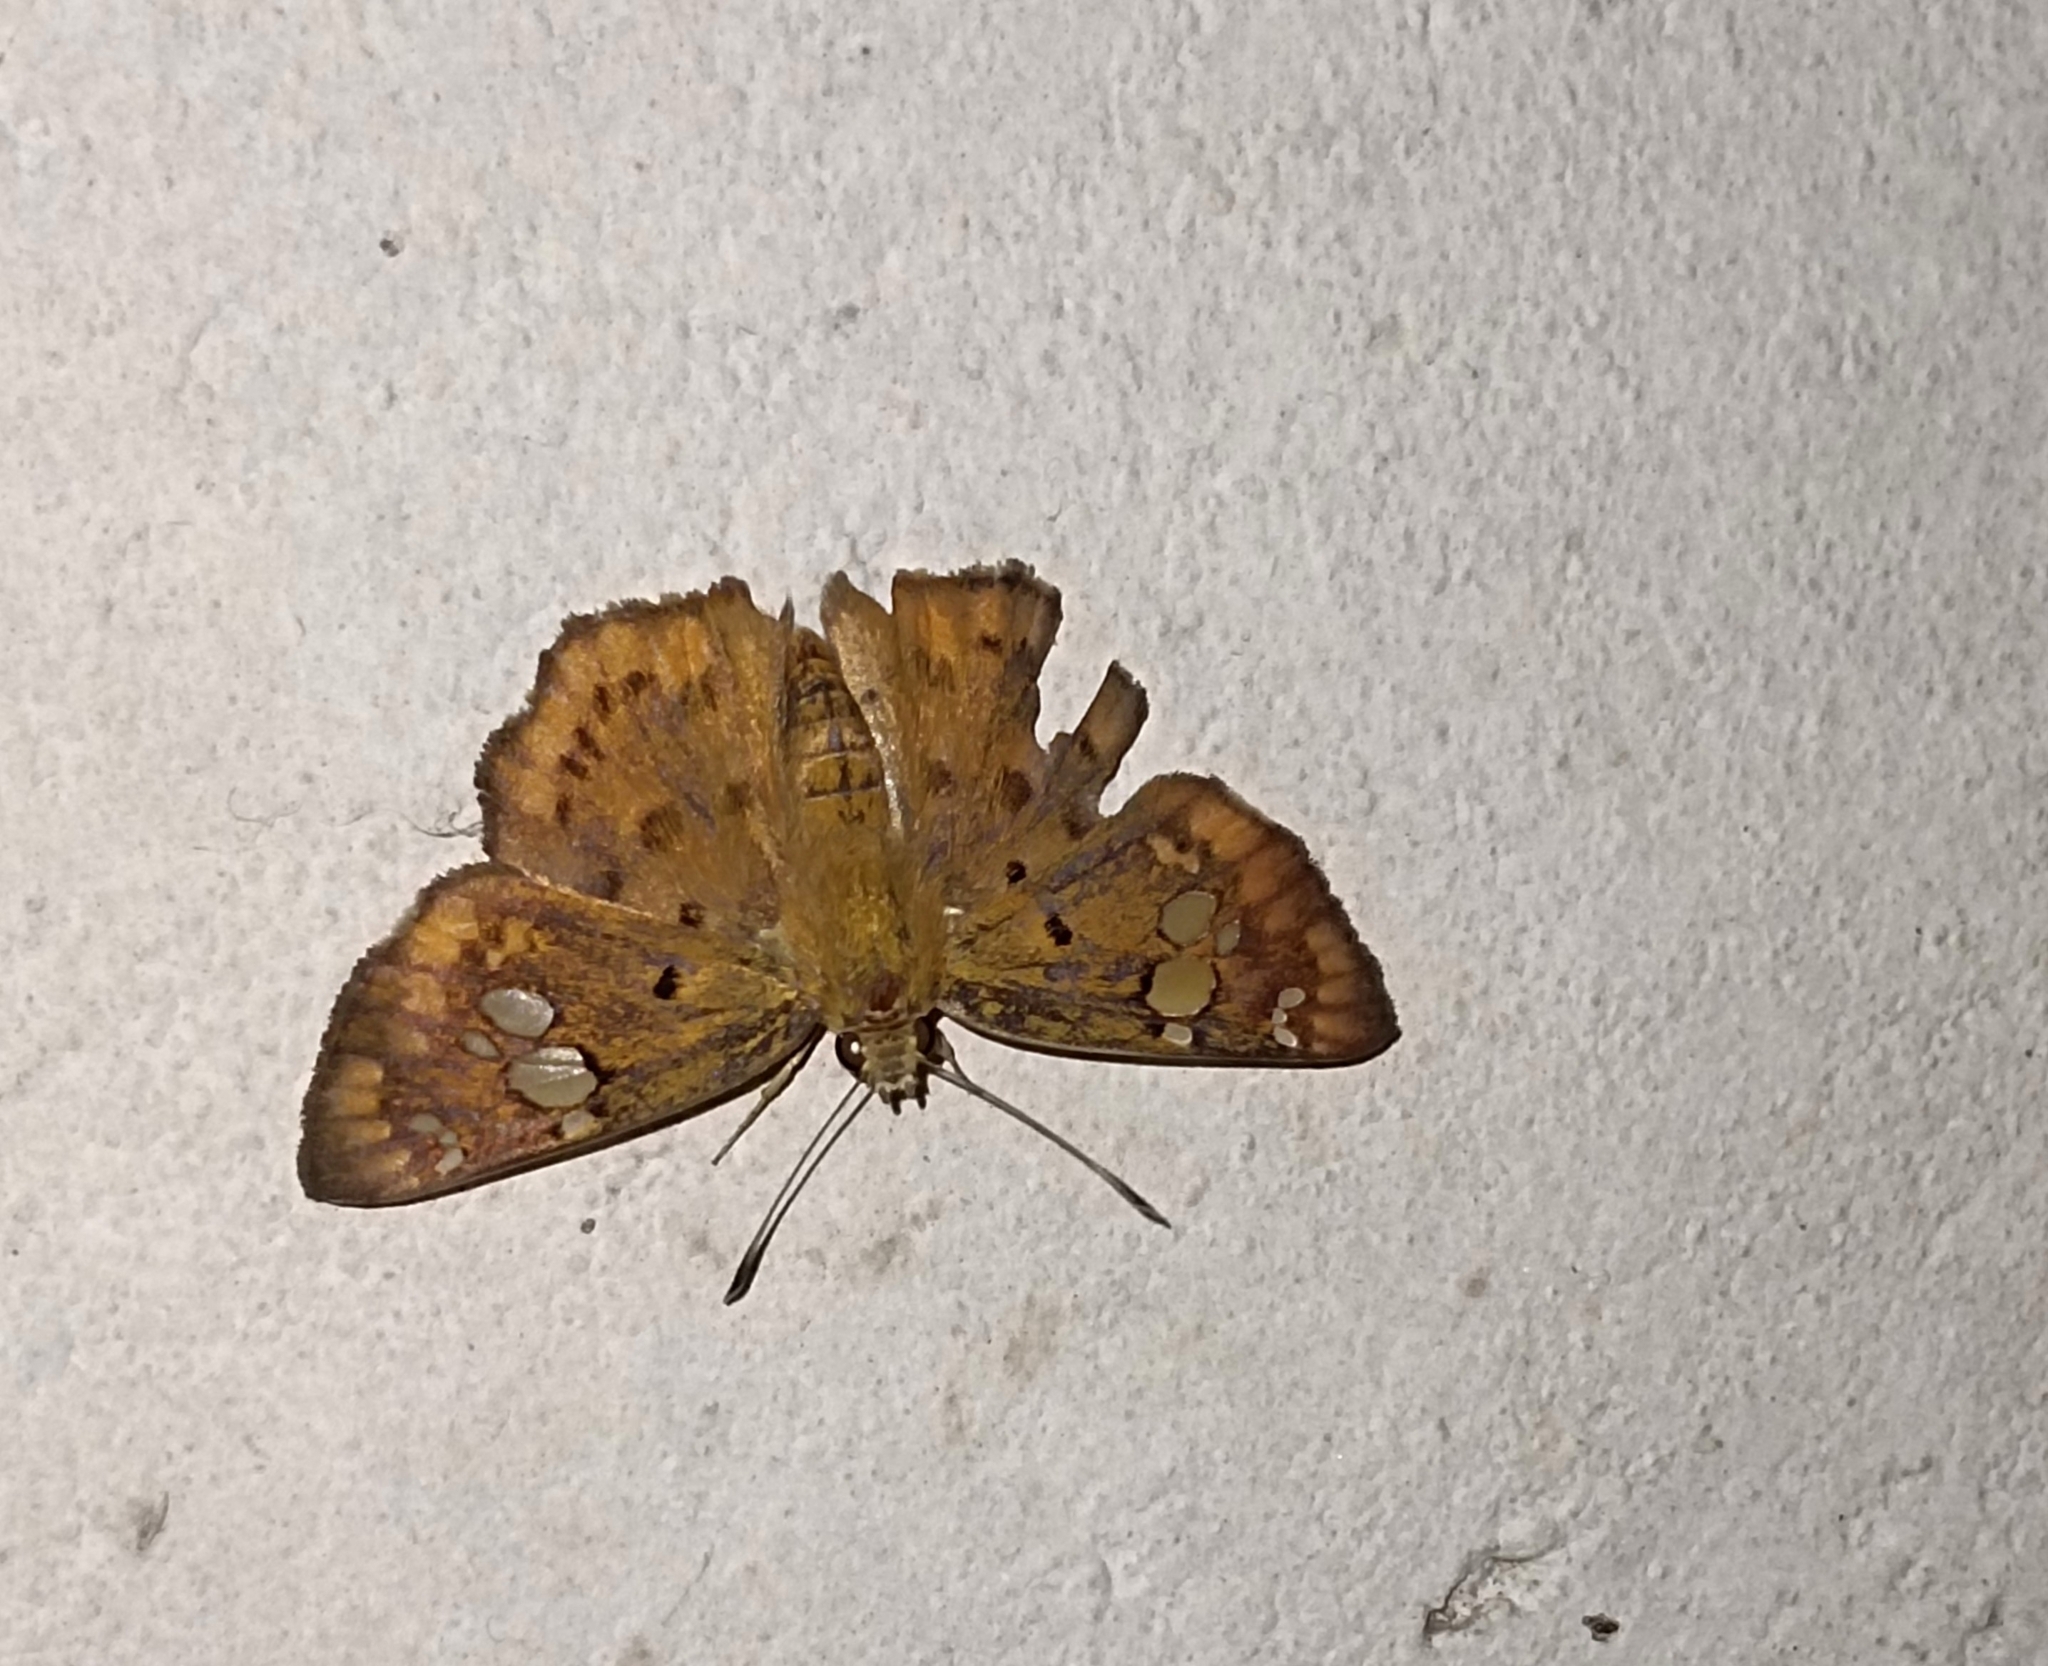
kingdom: Animalia
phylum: Arthropoda
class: Insecta
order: Lepidoptera
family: Hesperiidae
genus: Coladenia
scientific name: Coladenia
